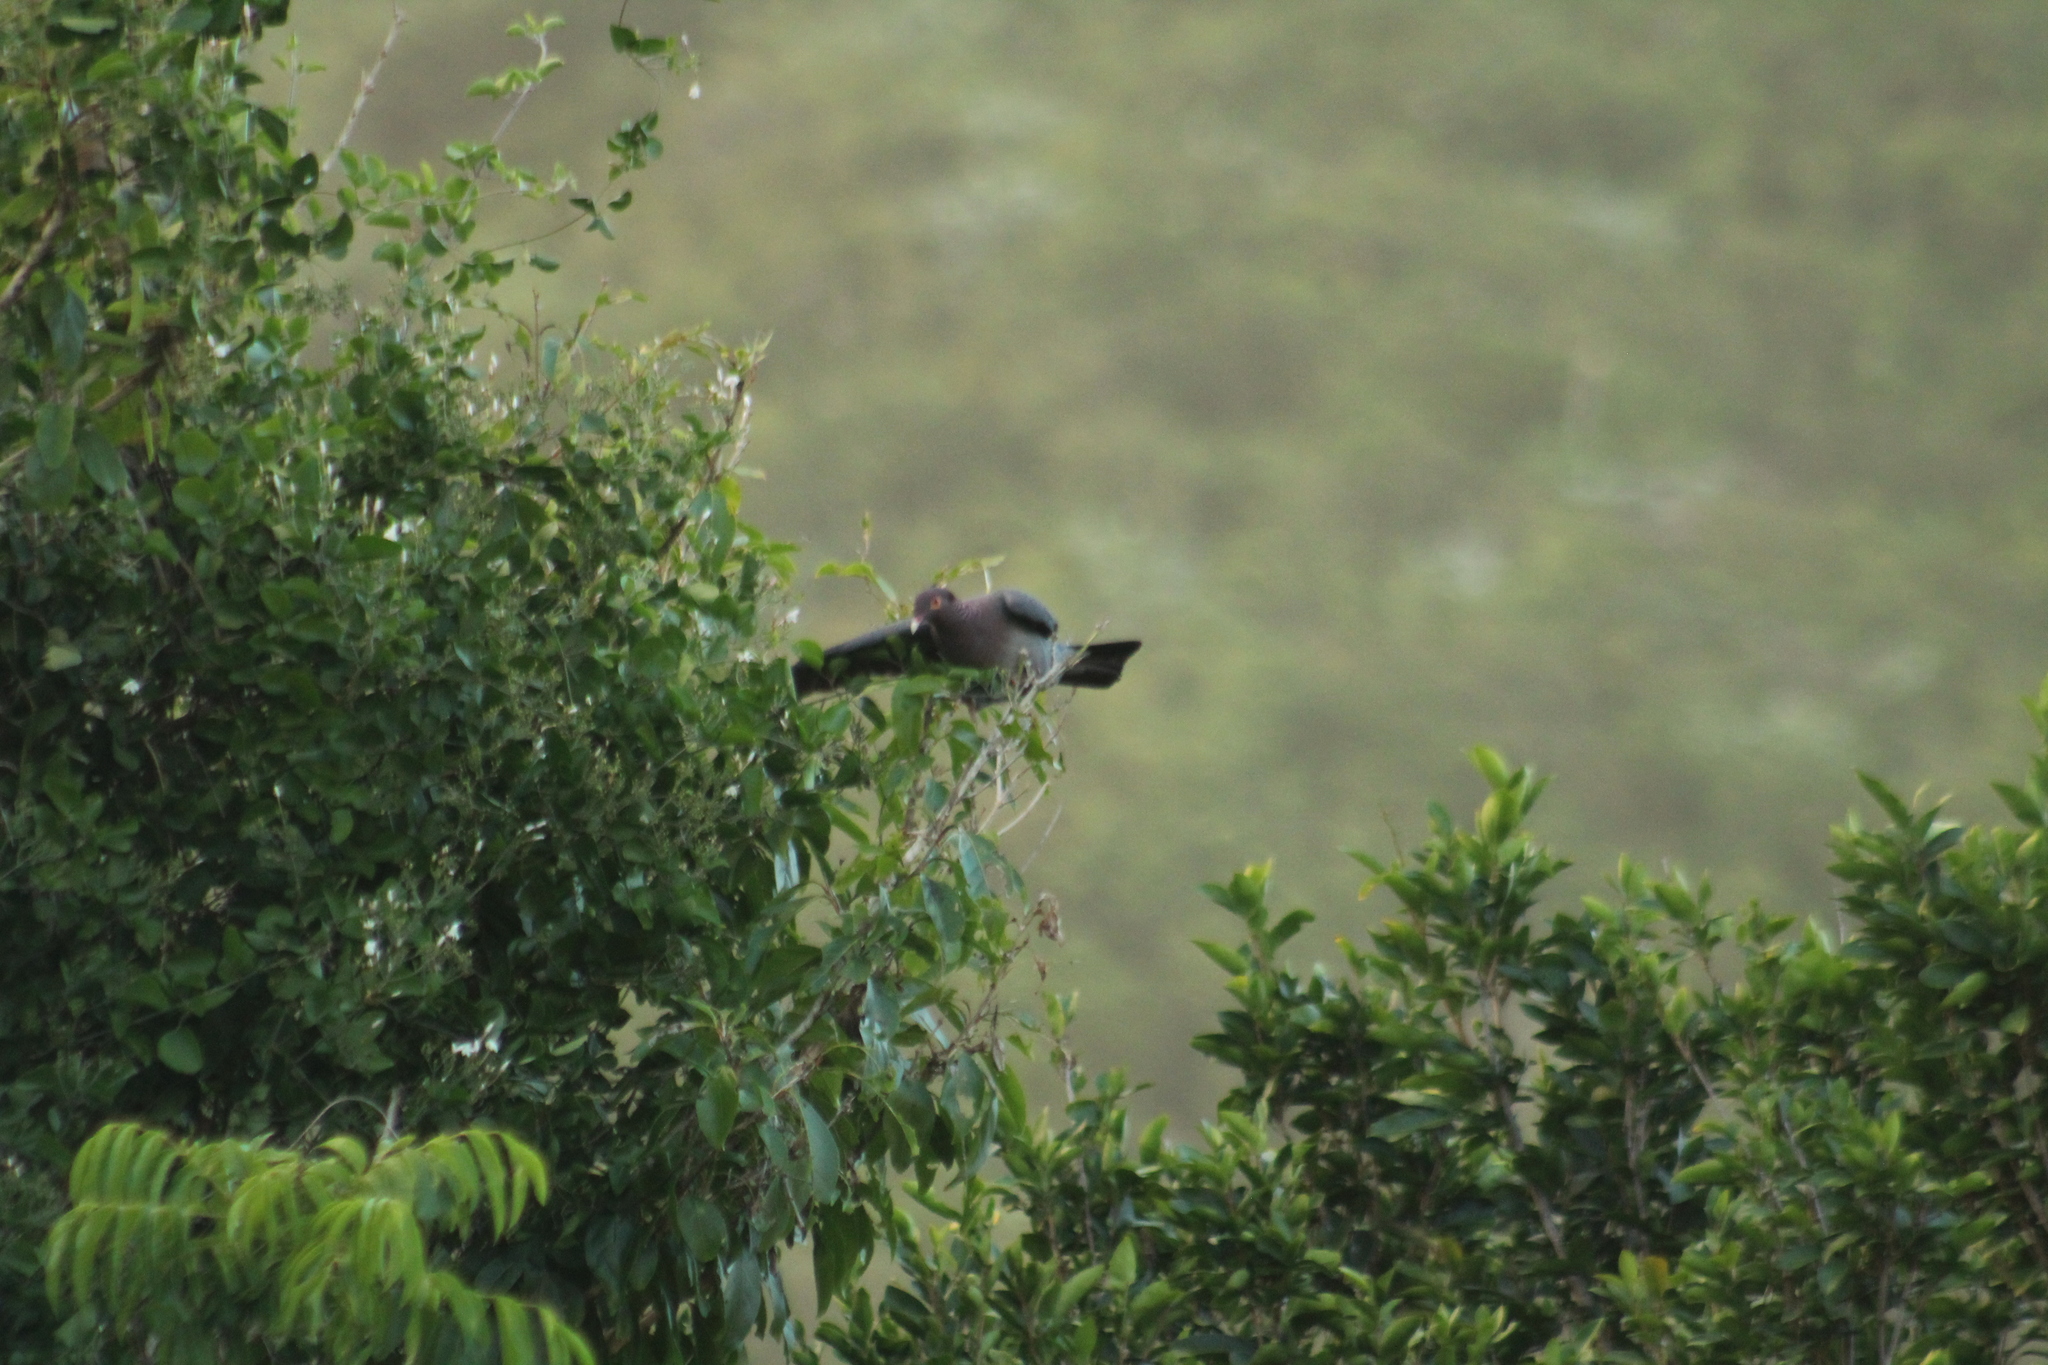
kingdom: Animalia
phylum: Chordata
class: Aves
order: Columbiformes
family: Columbidae
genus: Patagioenas
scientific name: Patagioenas squamosa
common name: Scaly-naped pigeon
